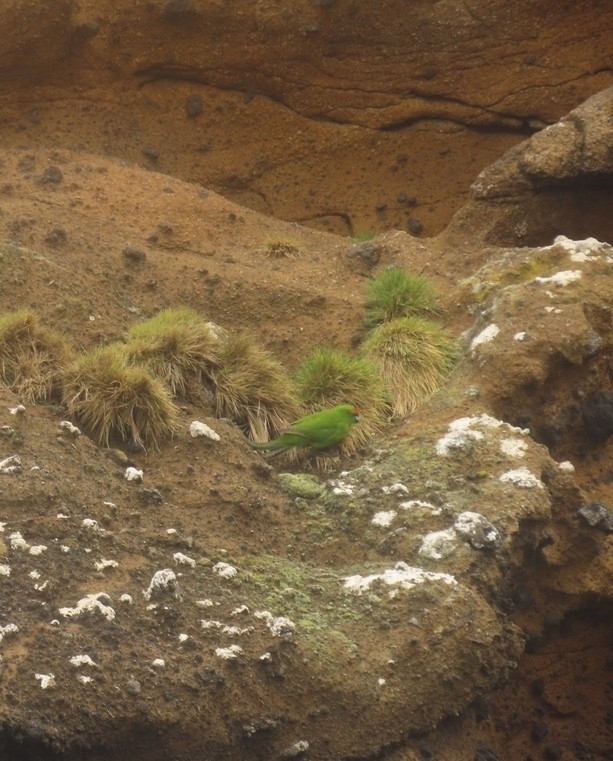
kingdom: Animalia
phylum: Chordata
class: Aves
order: Psittaciformes
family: Psittacidae
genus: Cyanoramphus
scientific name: Cyanoramphus novaezelandiae
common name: Red-fronted parakeet
